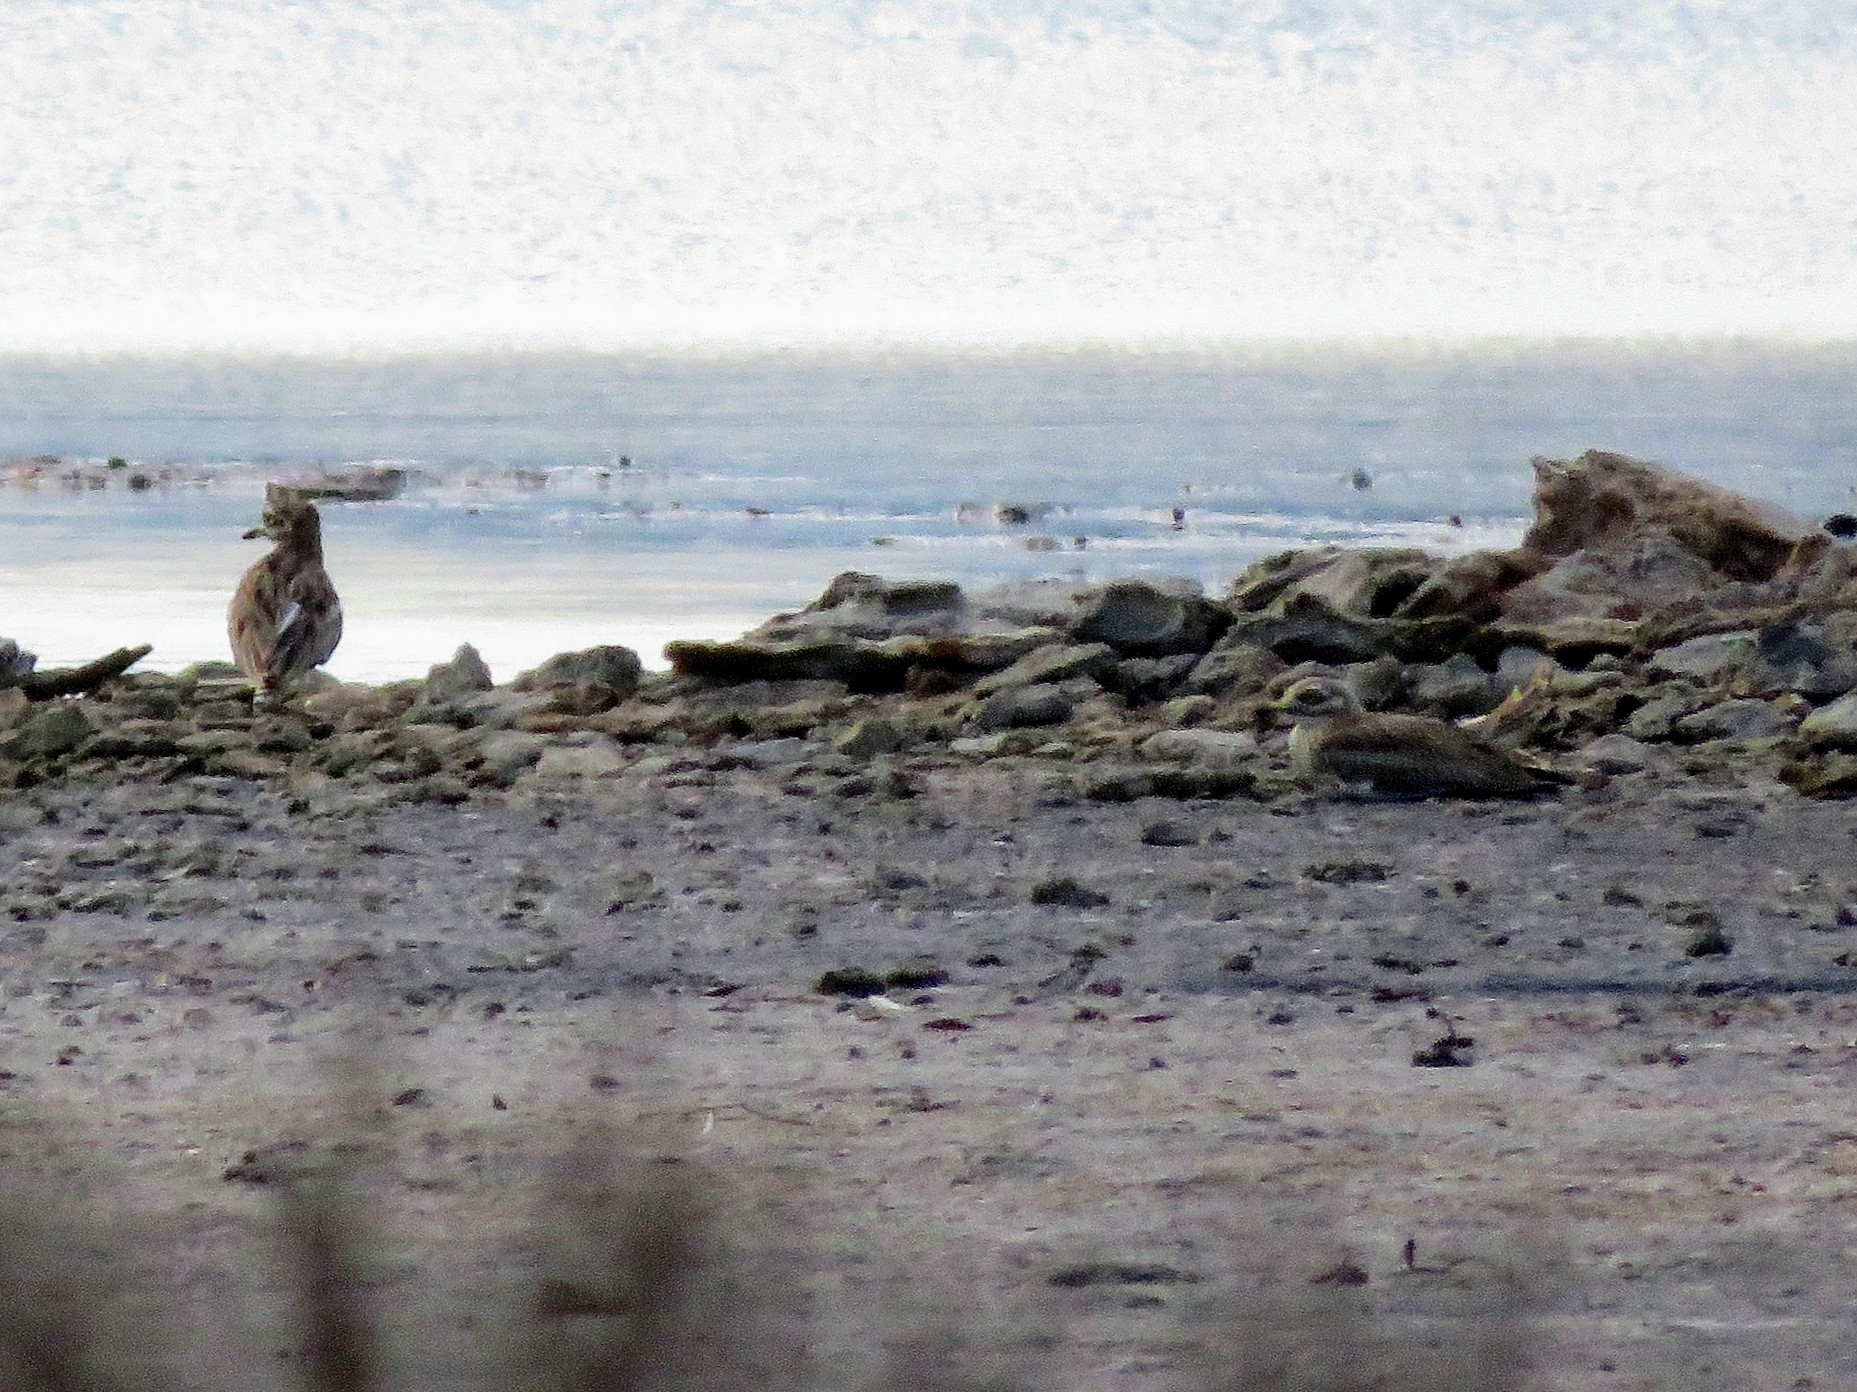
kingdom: Animalia
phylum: Chordata
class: Aves
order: Charadriiformes
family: Burhinidae
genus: Burhinus
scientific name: Burhinus oedicnemus
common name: Eurasian stone-curlew
